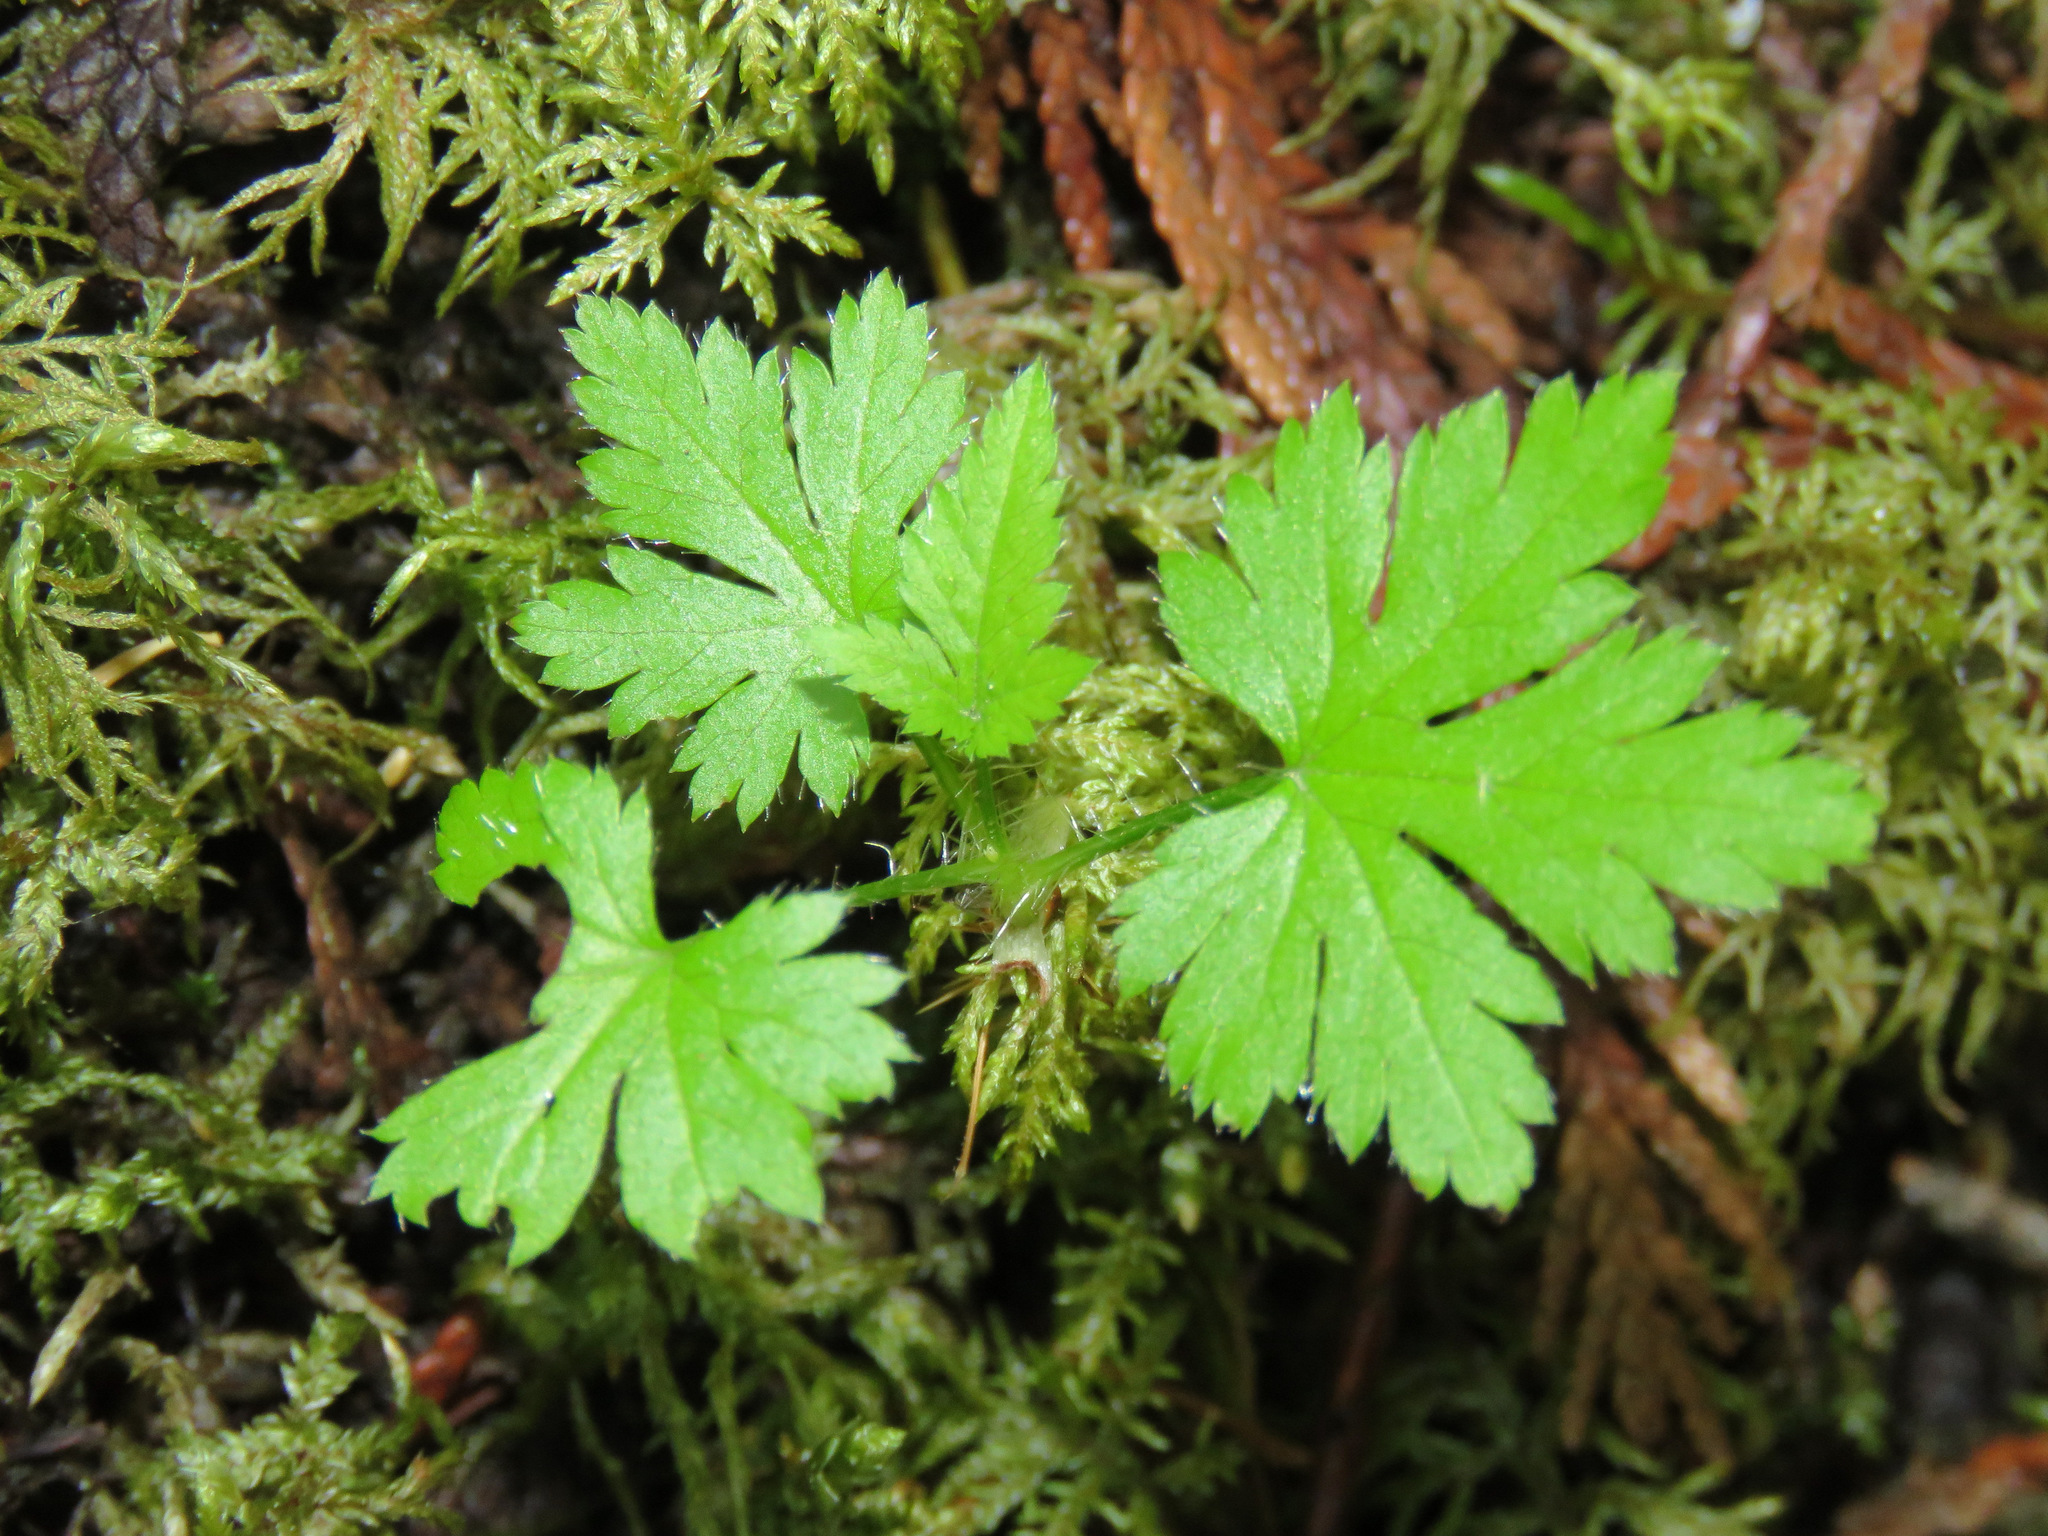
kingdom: Plantae
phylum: Tracheophyta
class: Magnoliopsida
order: Saxifragales
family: Grossulariaceae
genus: Ribes
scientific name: Ribes lacustre
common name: Black gooseberry
